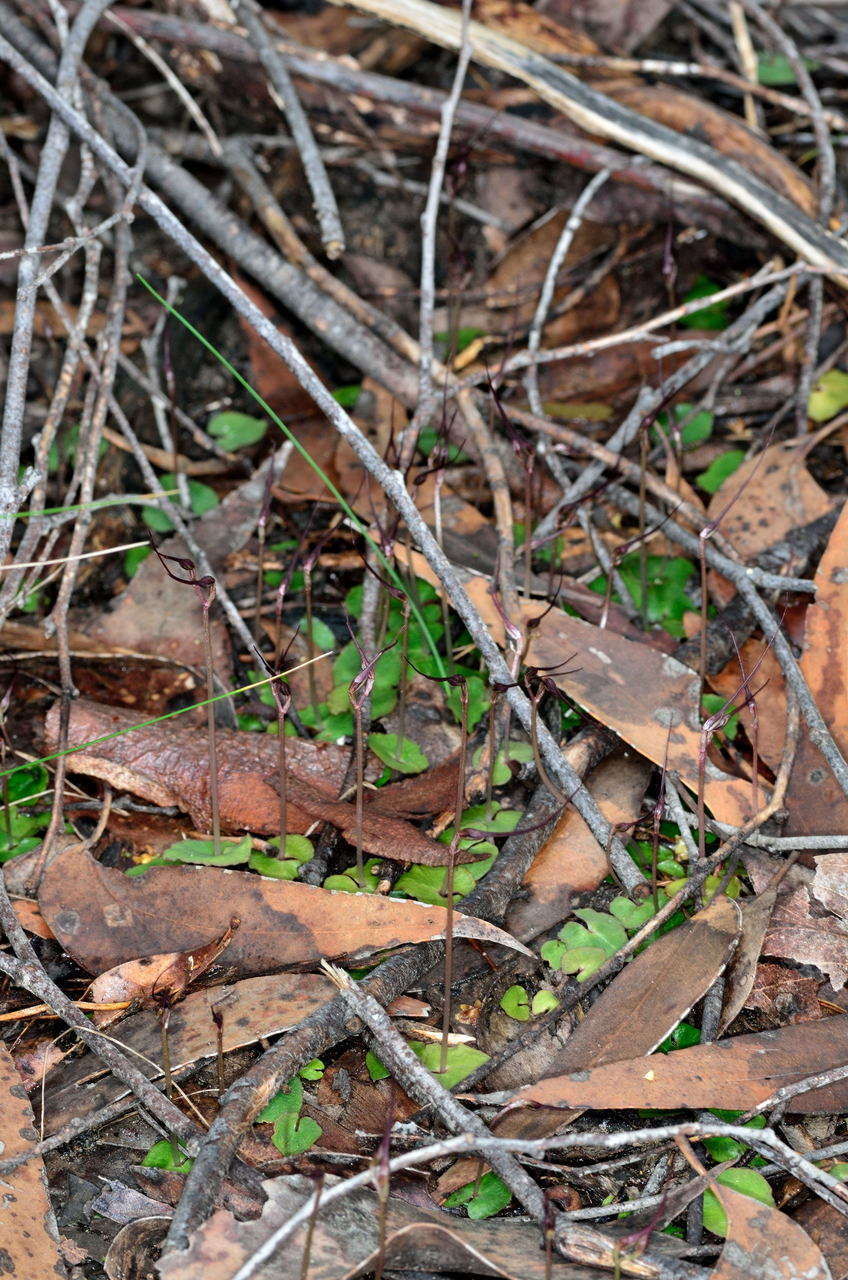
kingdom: Plantae
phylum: Tracheophyta
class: Liliopsida
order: Asparagales
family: Orchidaceae
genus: Acianthus
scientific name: Acianthus caudatus
